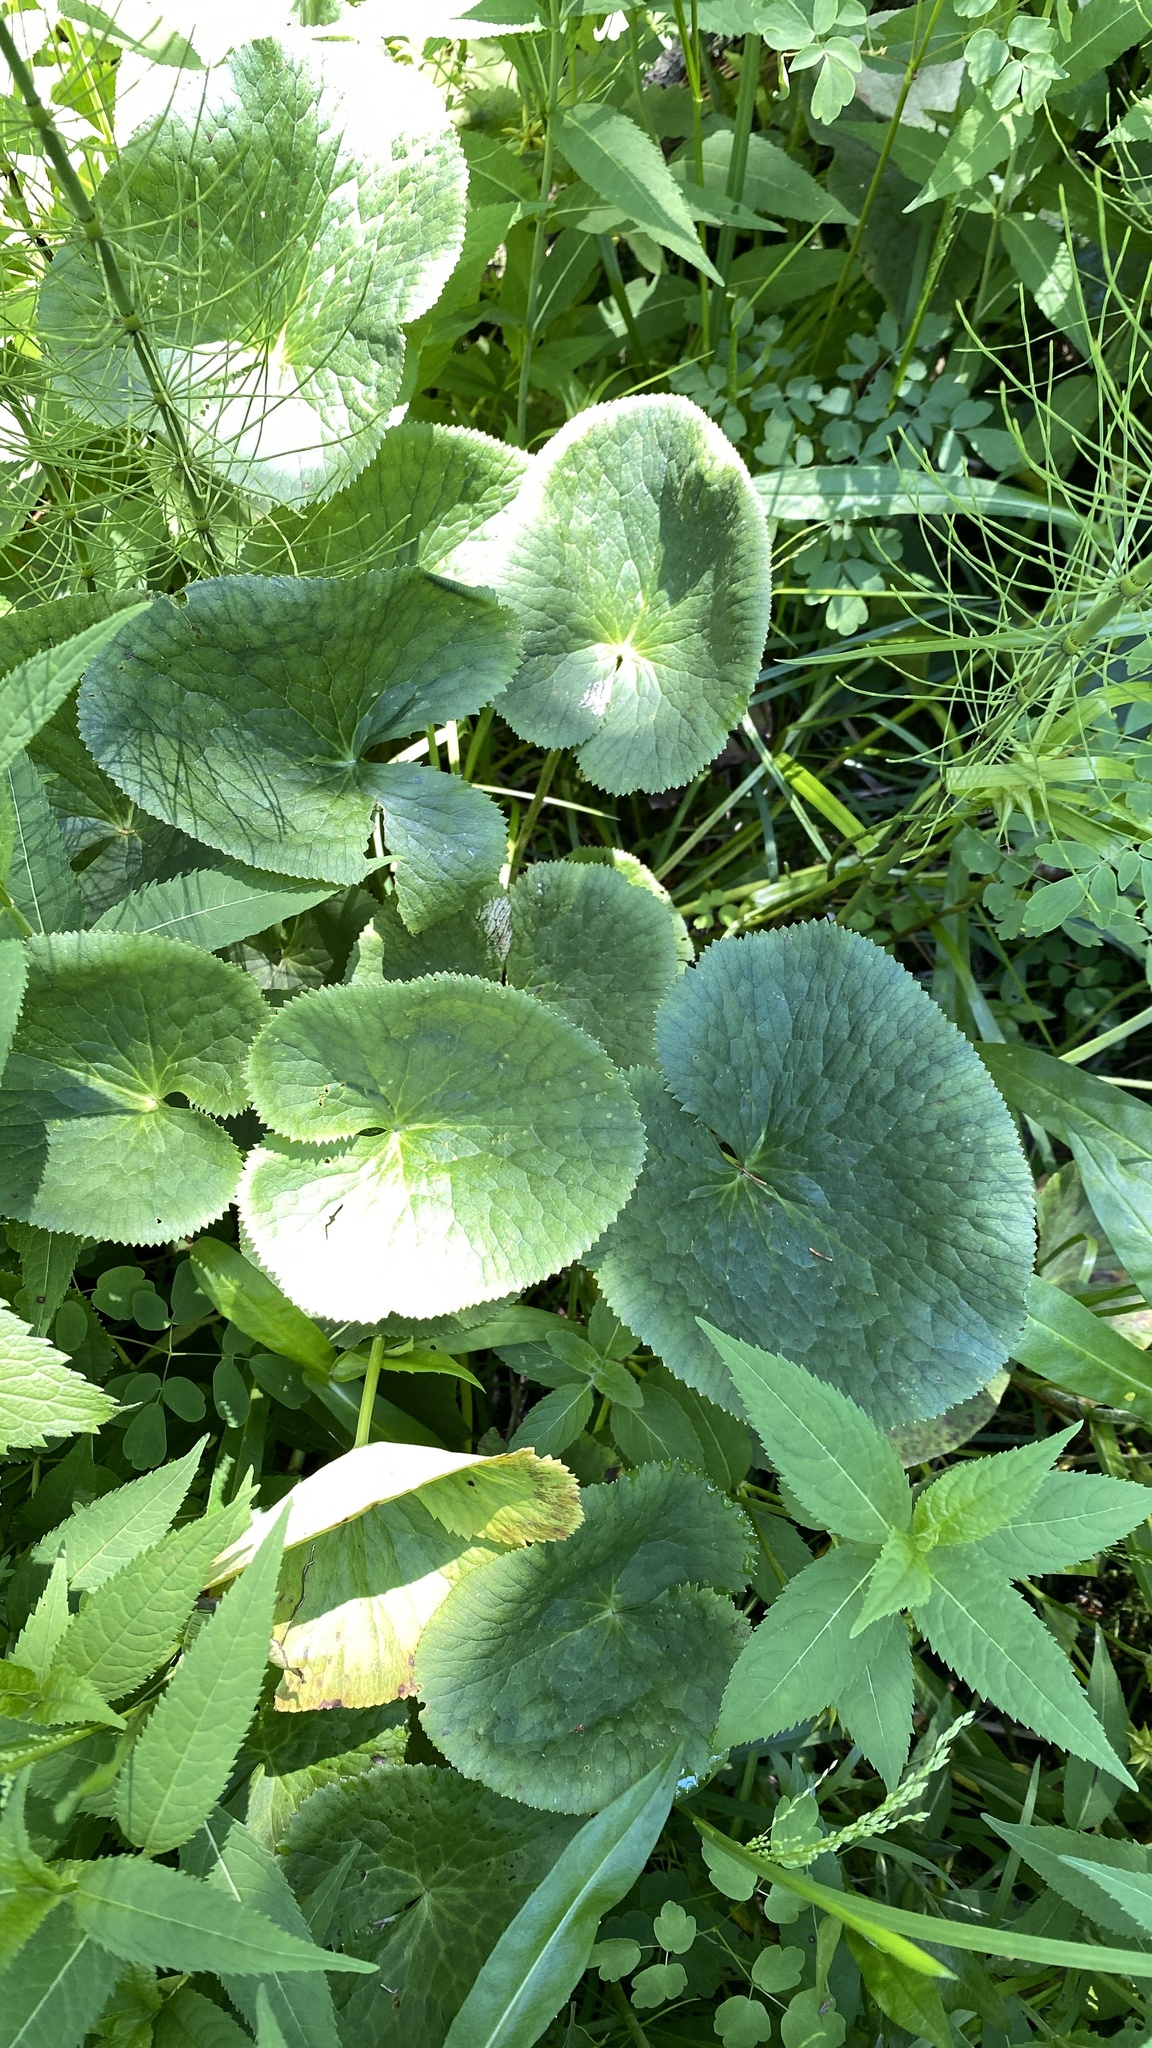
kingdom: Plantae
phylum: Tracheophyta
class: Magnoliopsida
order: Ranunculales
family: Ranunculaceae
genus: Caltha
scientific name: Caltha palustris
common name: Marsh marigold
